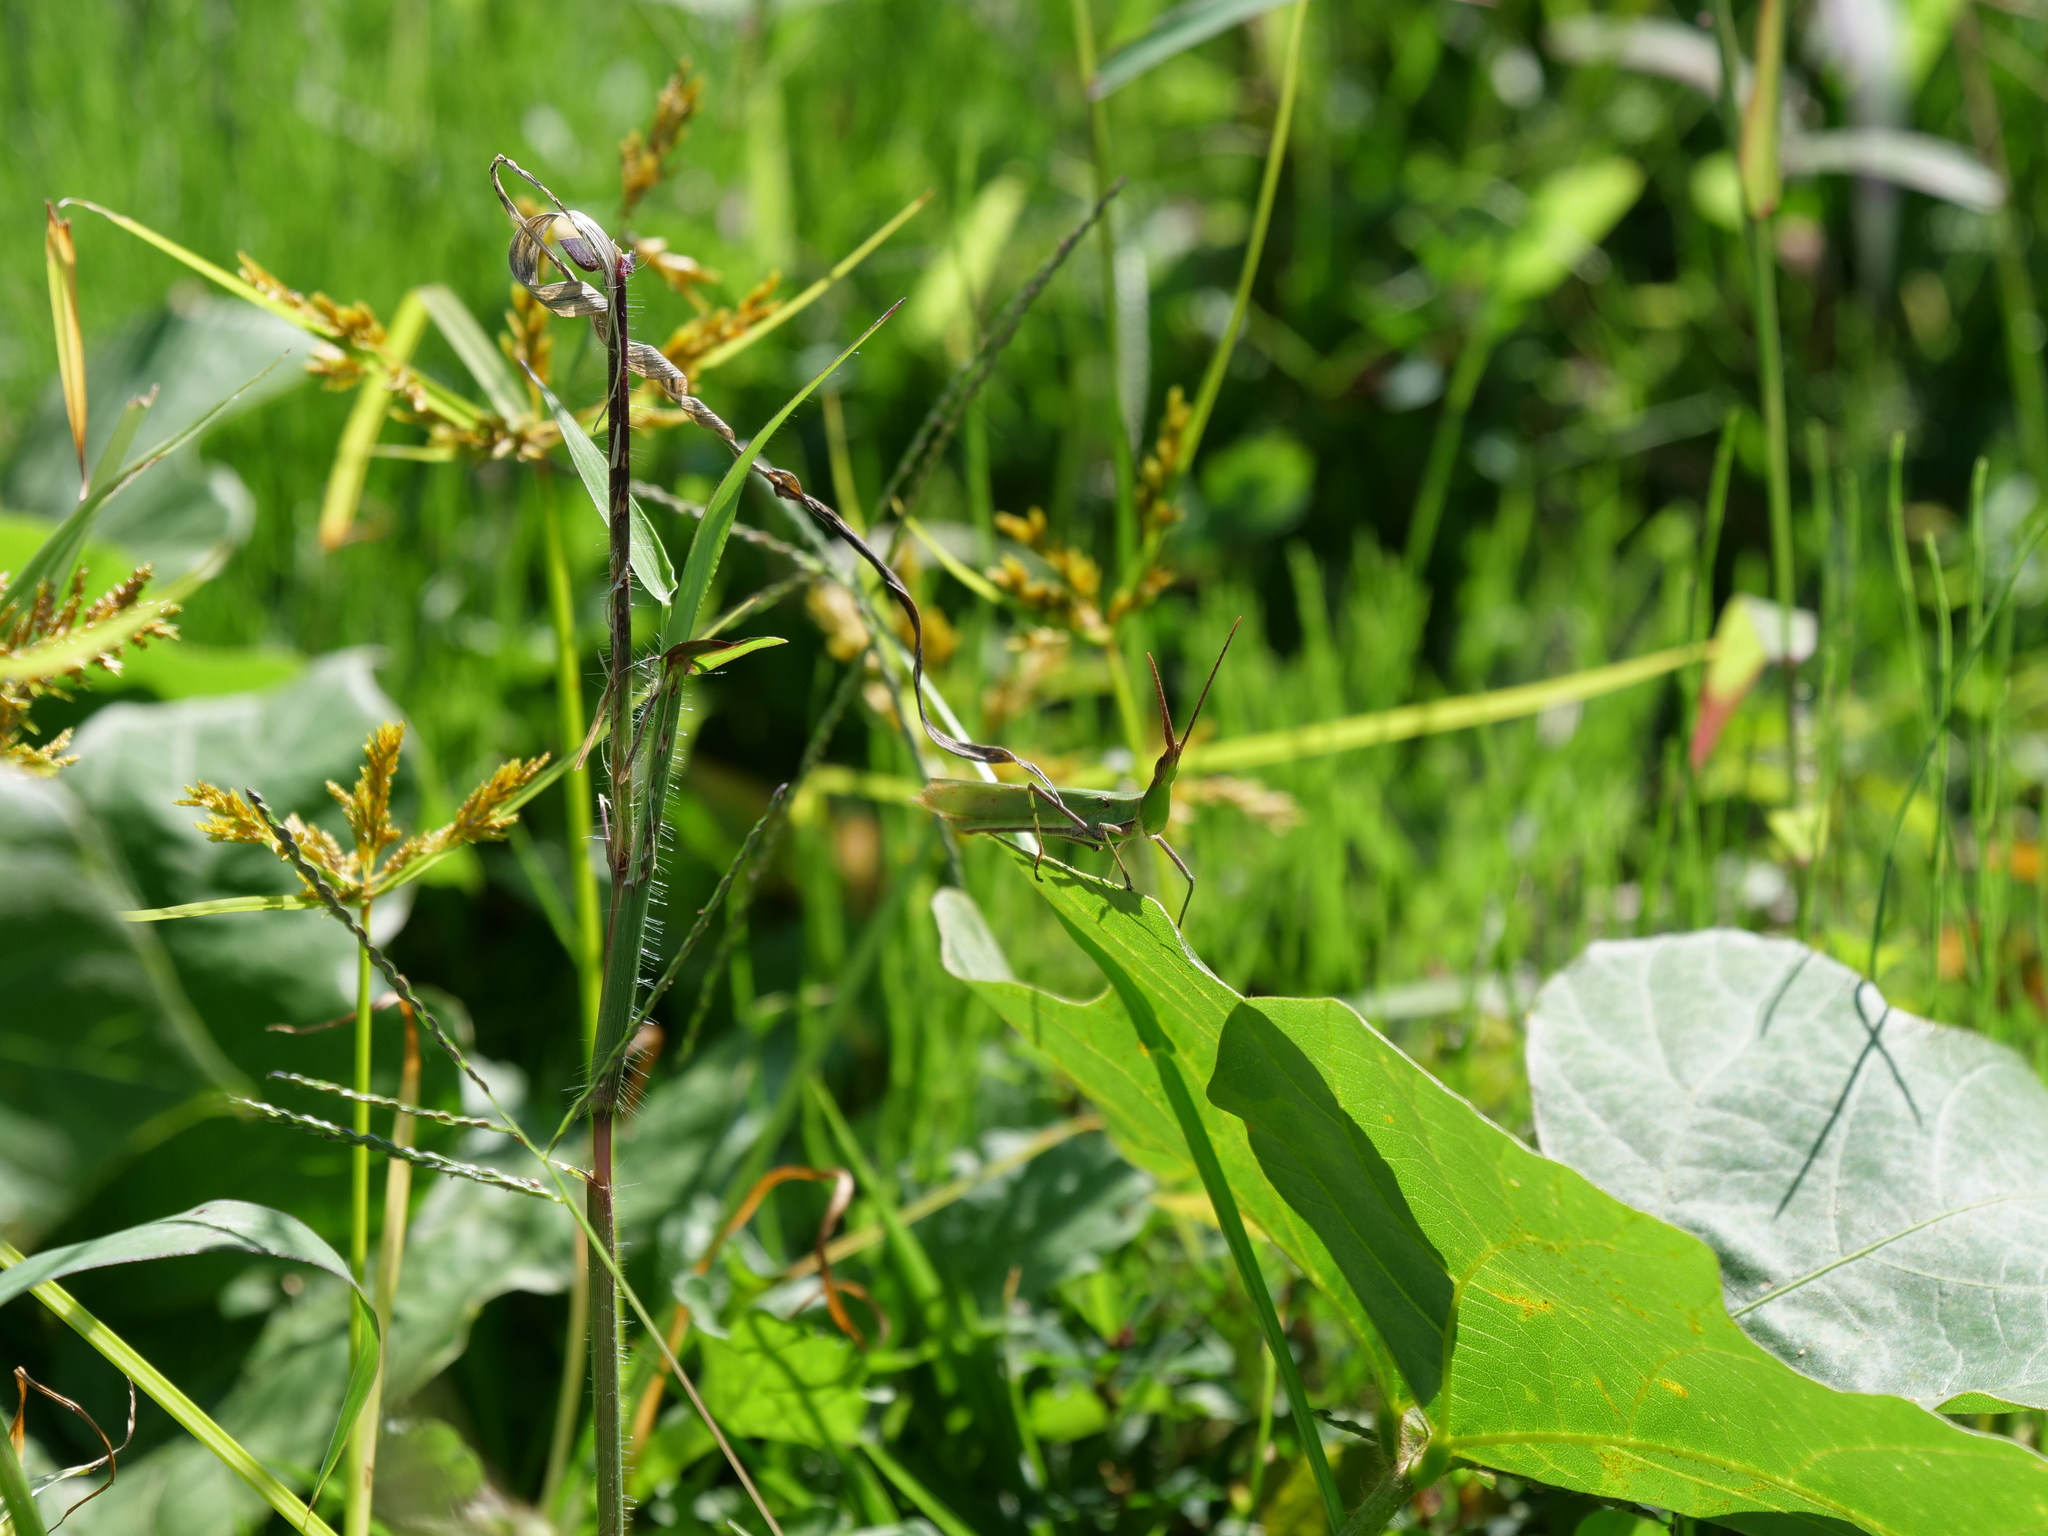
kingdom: Animalia
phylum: Arthropoda
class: Insecta
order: Orthoptera
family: Acrididae
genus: Acrida
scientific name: Acrida cinerea
